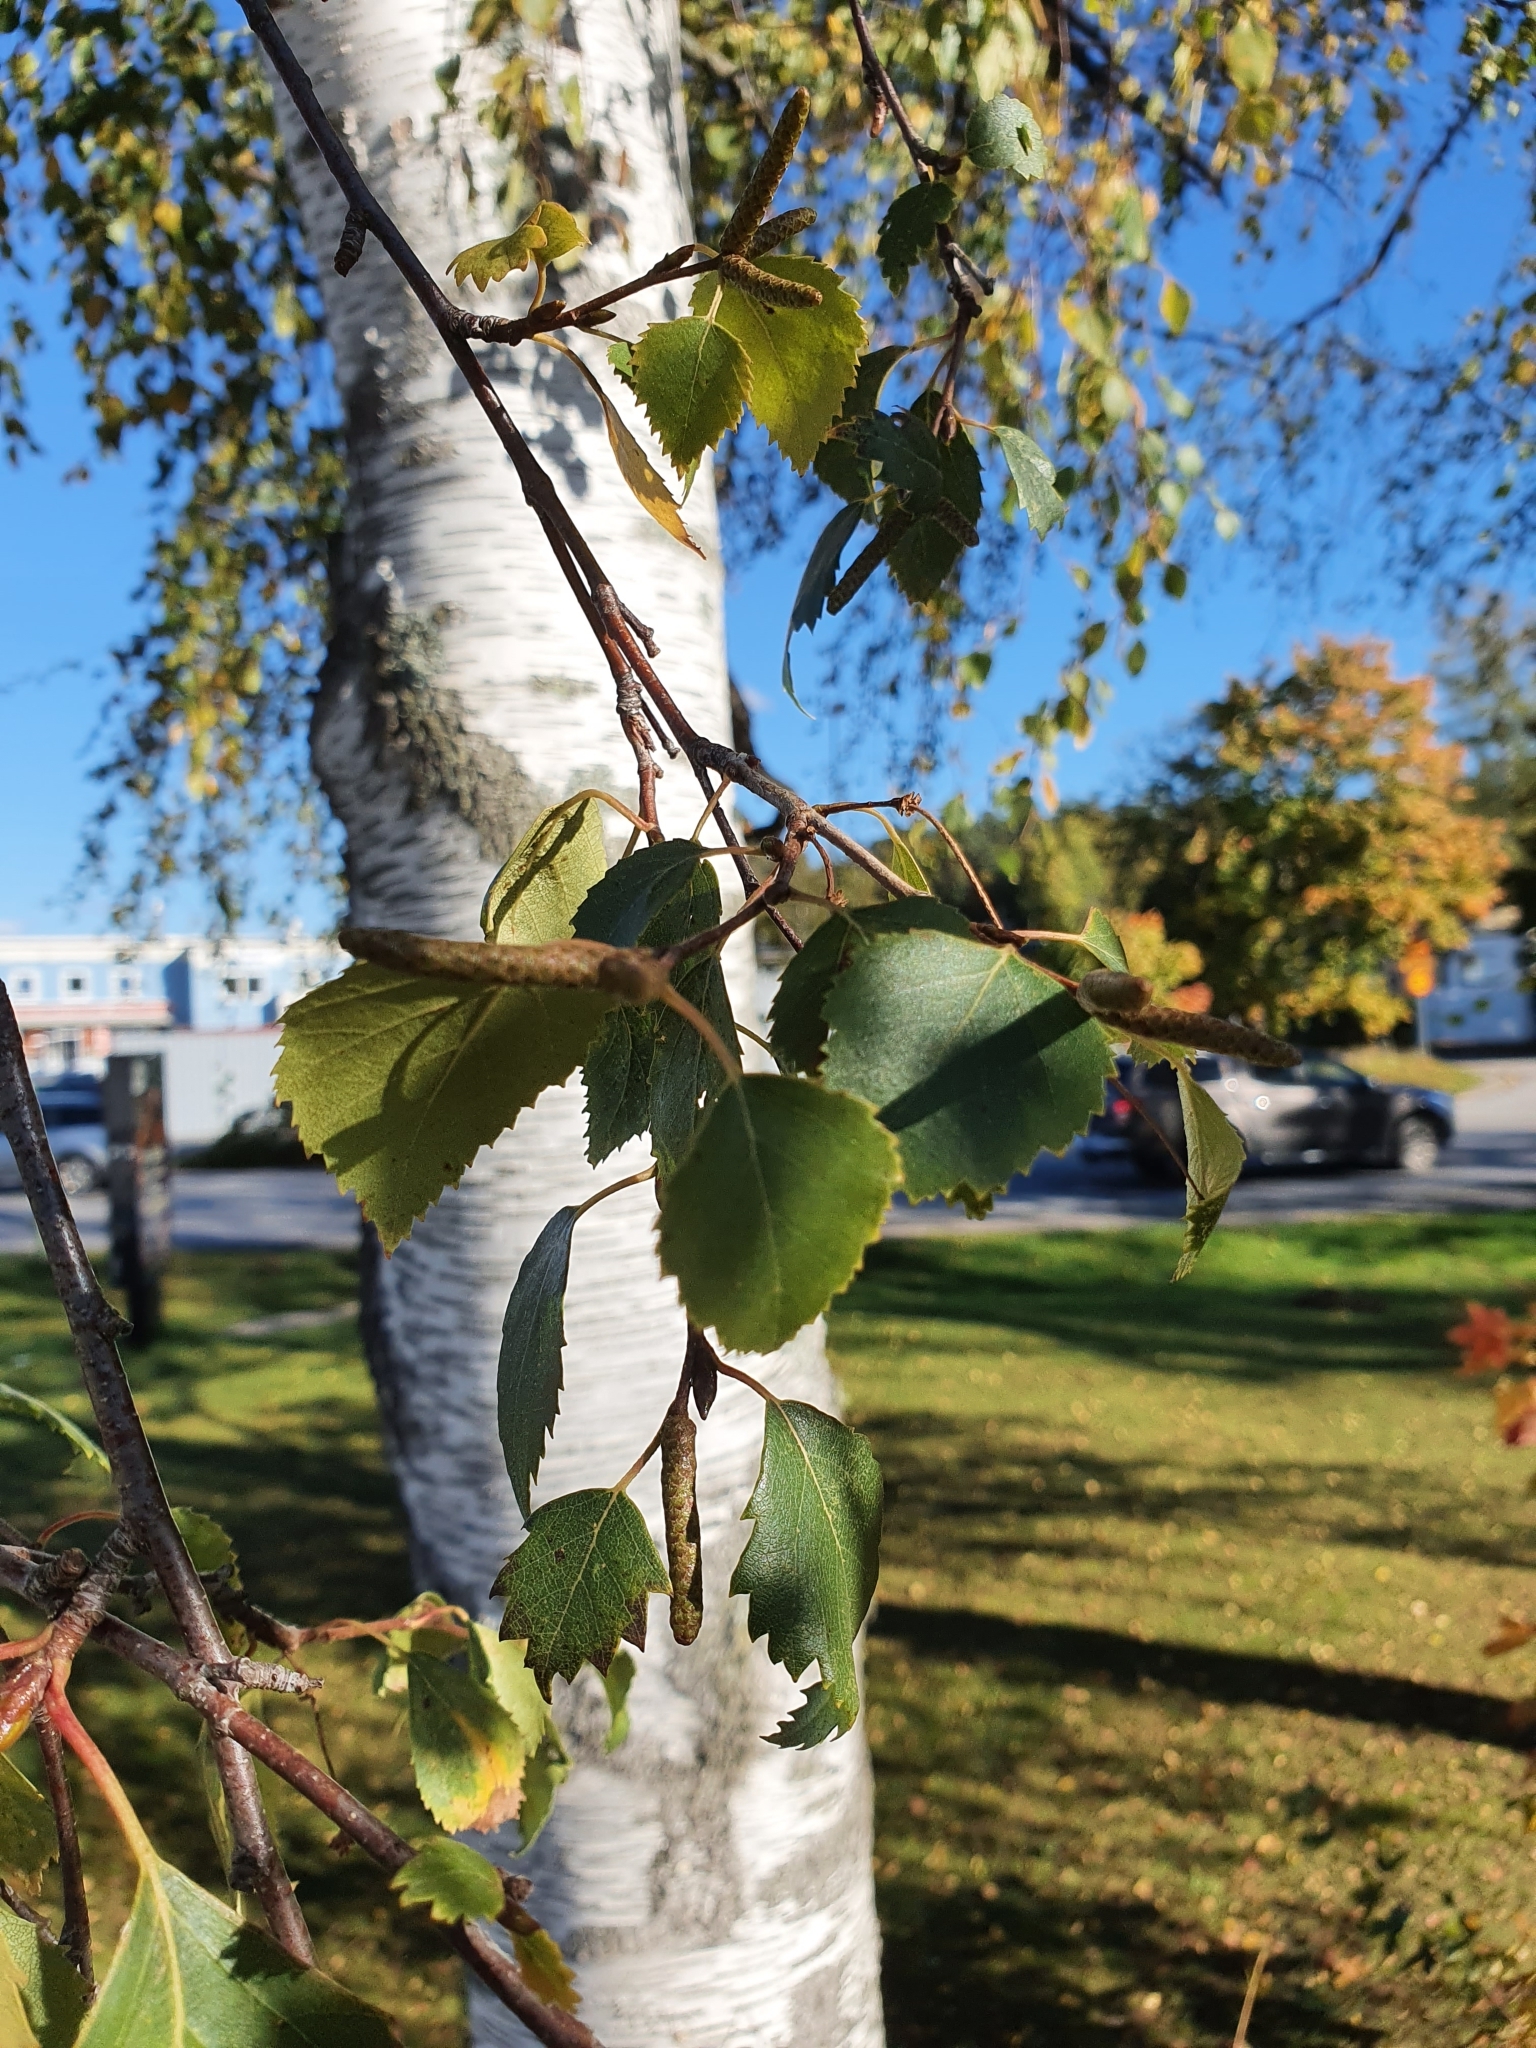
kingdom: Plantae
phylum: Tracheophyta
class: Magnoliopsida
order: Fagales
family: Betulaceae
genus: Betula
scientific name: Betula pendula
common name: Silver birch
